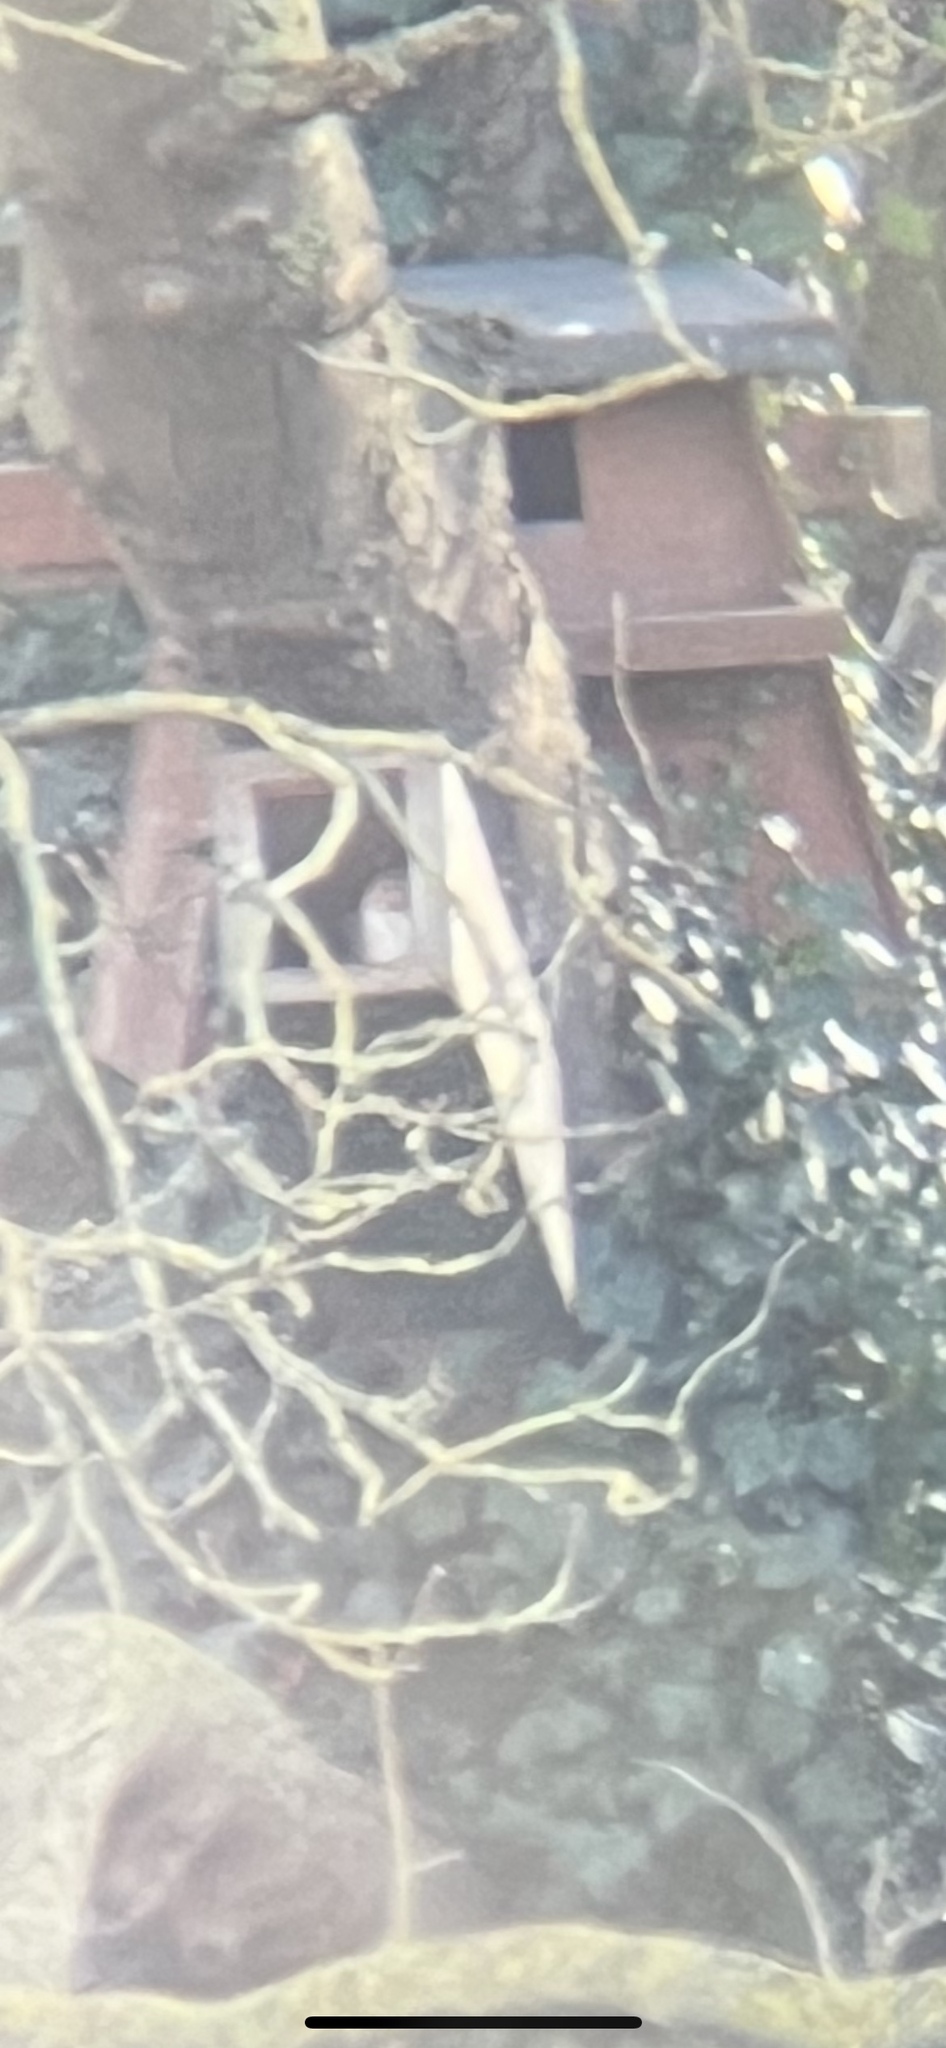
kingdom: Animalia
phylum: Chordata
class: Aves
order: Strigiformes
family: Tytonidae
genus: Tyto
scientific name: Tyto alba
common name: Barn owl
